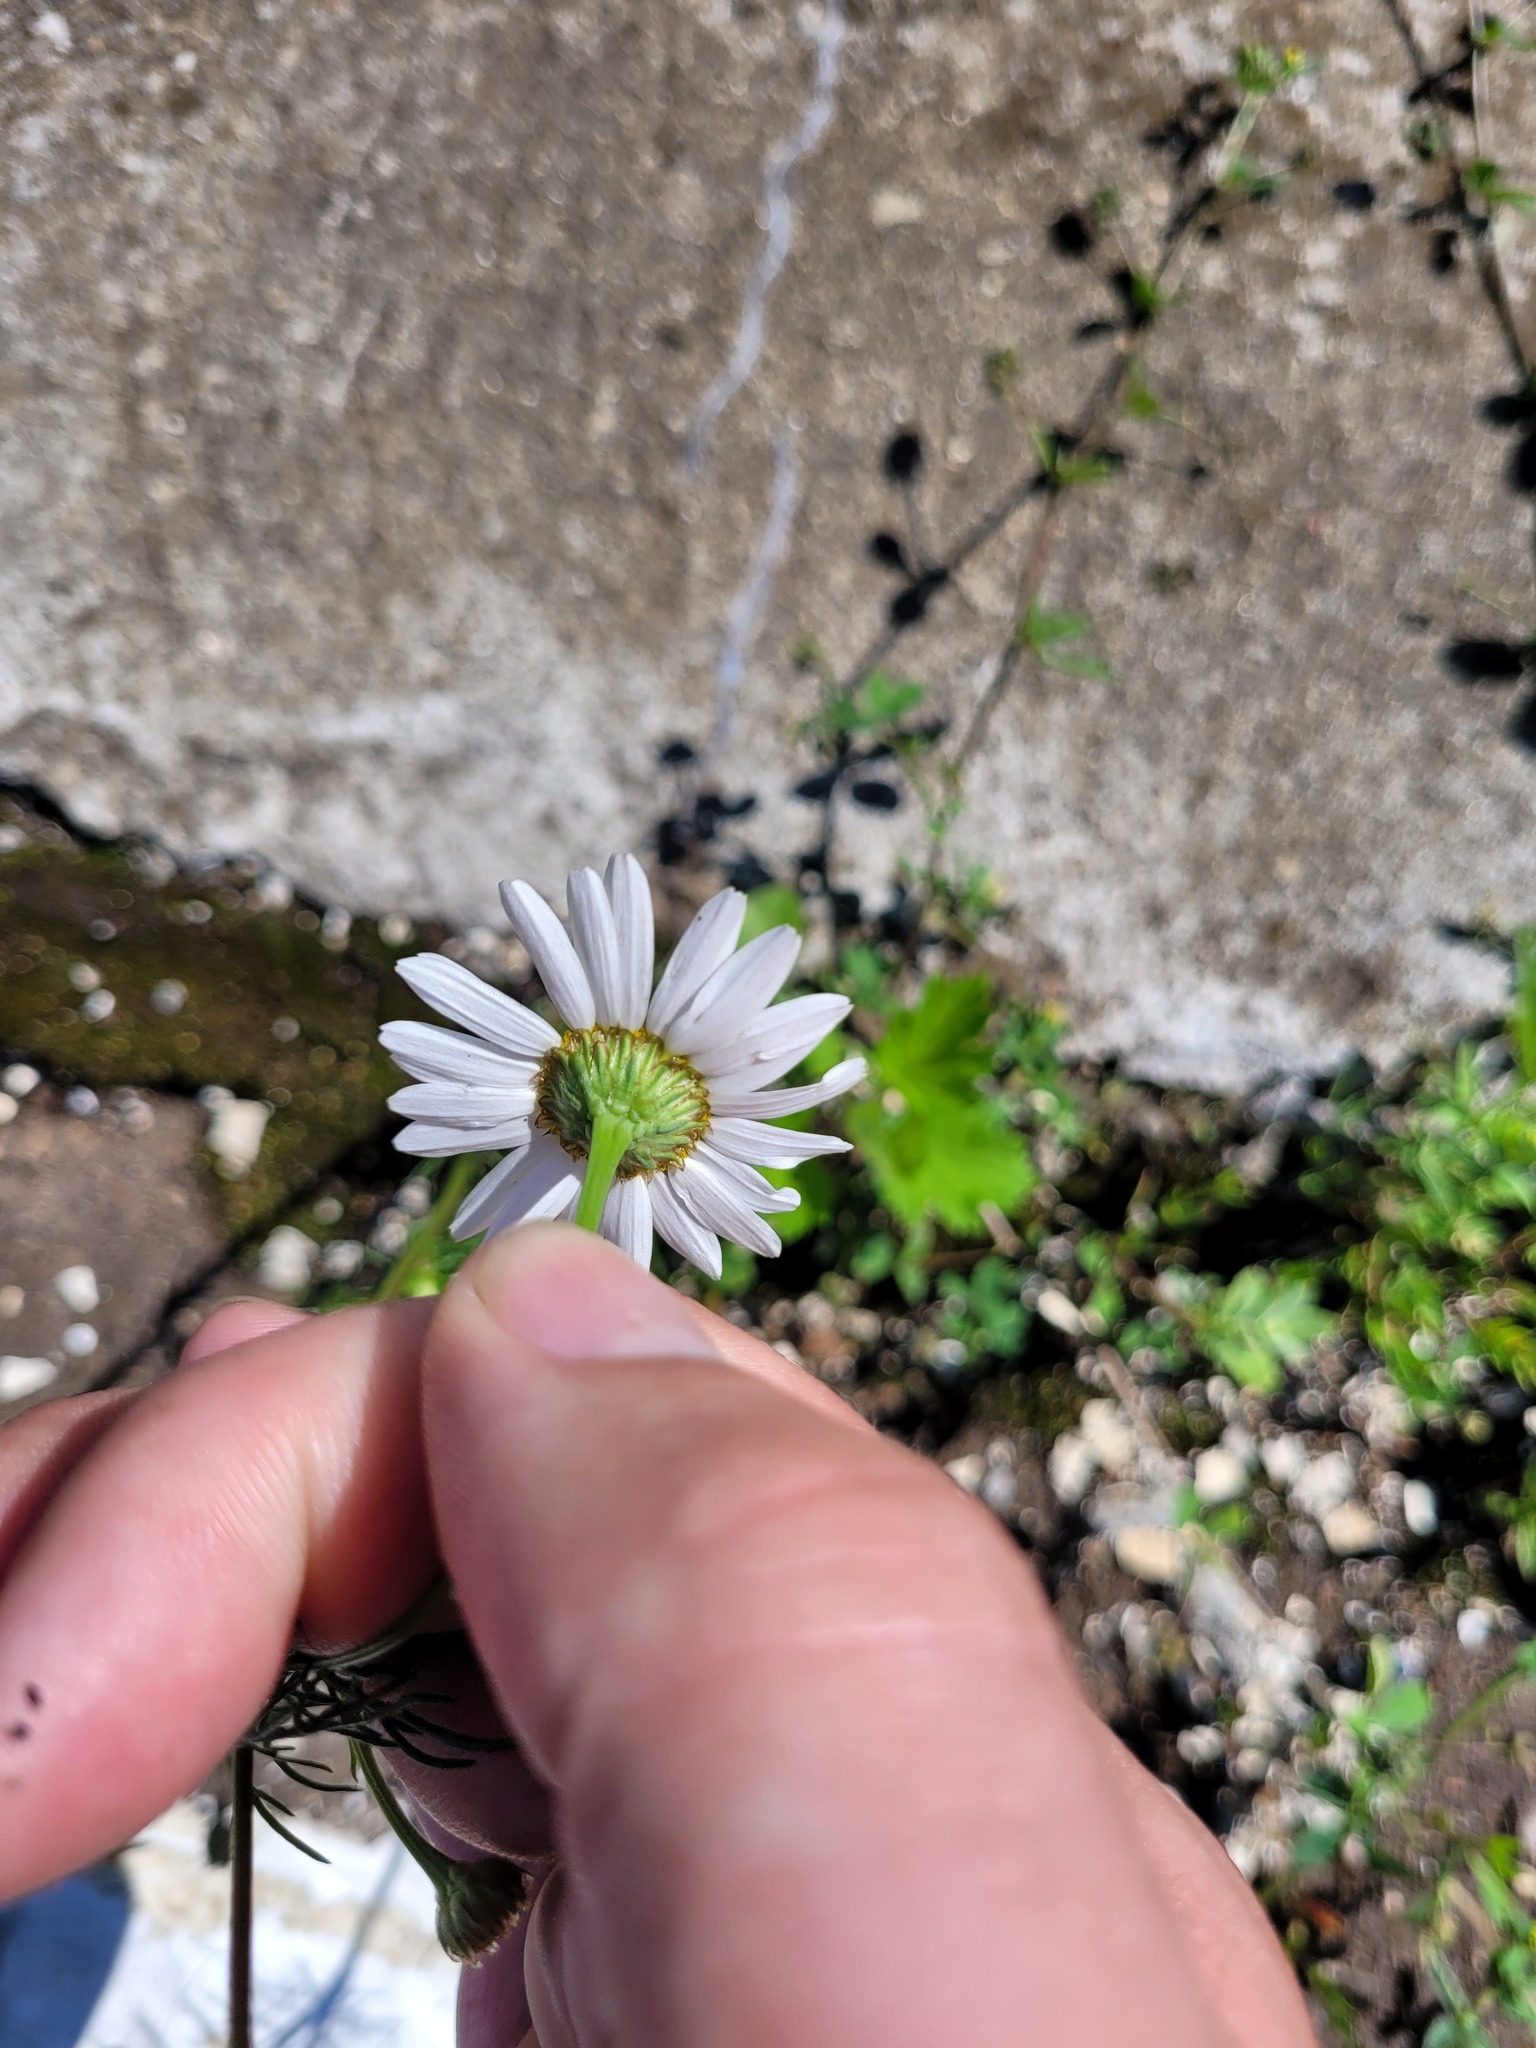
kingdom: Plantae
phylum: Tracheophyta
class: Magnoliopsida
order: Asterales
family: Asteraceae
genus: Tripleurospermum
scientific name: Tripleurospermum inodorum
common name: Scentless mayweed
